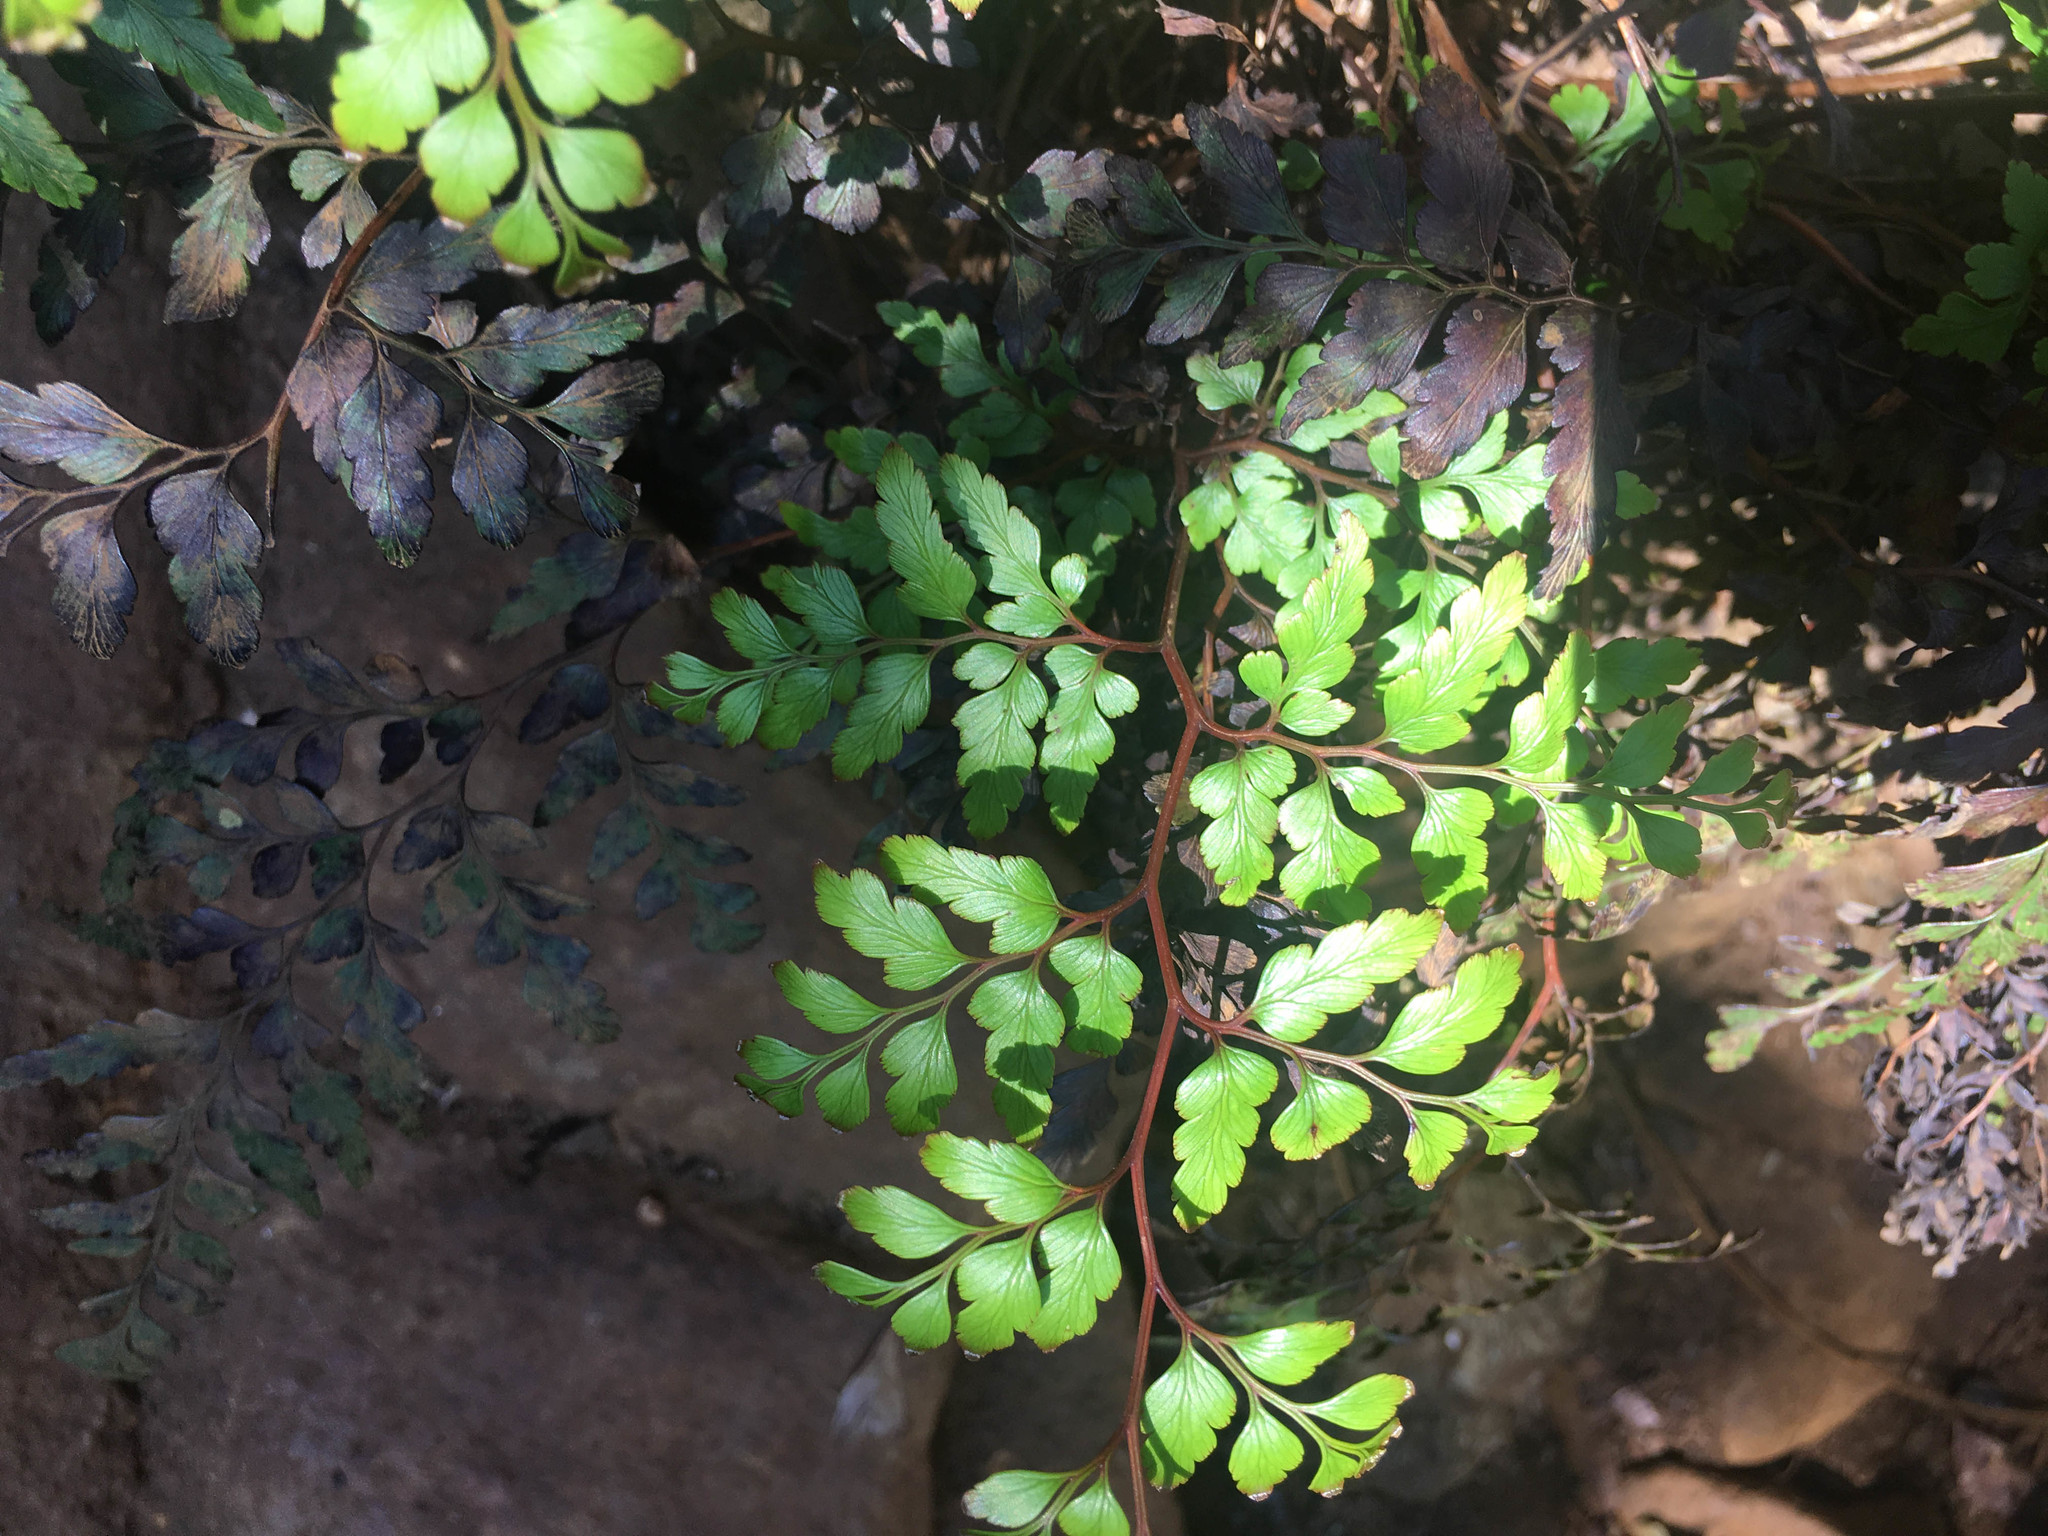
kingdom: Plantae
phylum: Tracheophyta
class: Polypodiopsida
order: Polypodiales
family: Lindsaeaceae
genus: Odontosoria
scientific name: Odontosoria deltoidea
